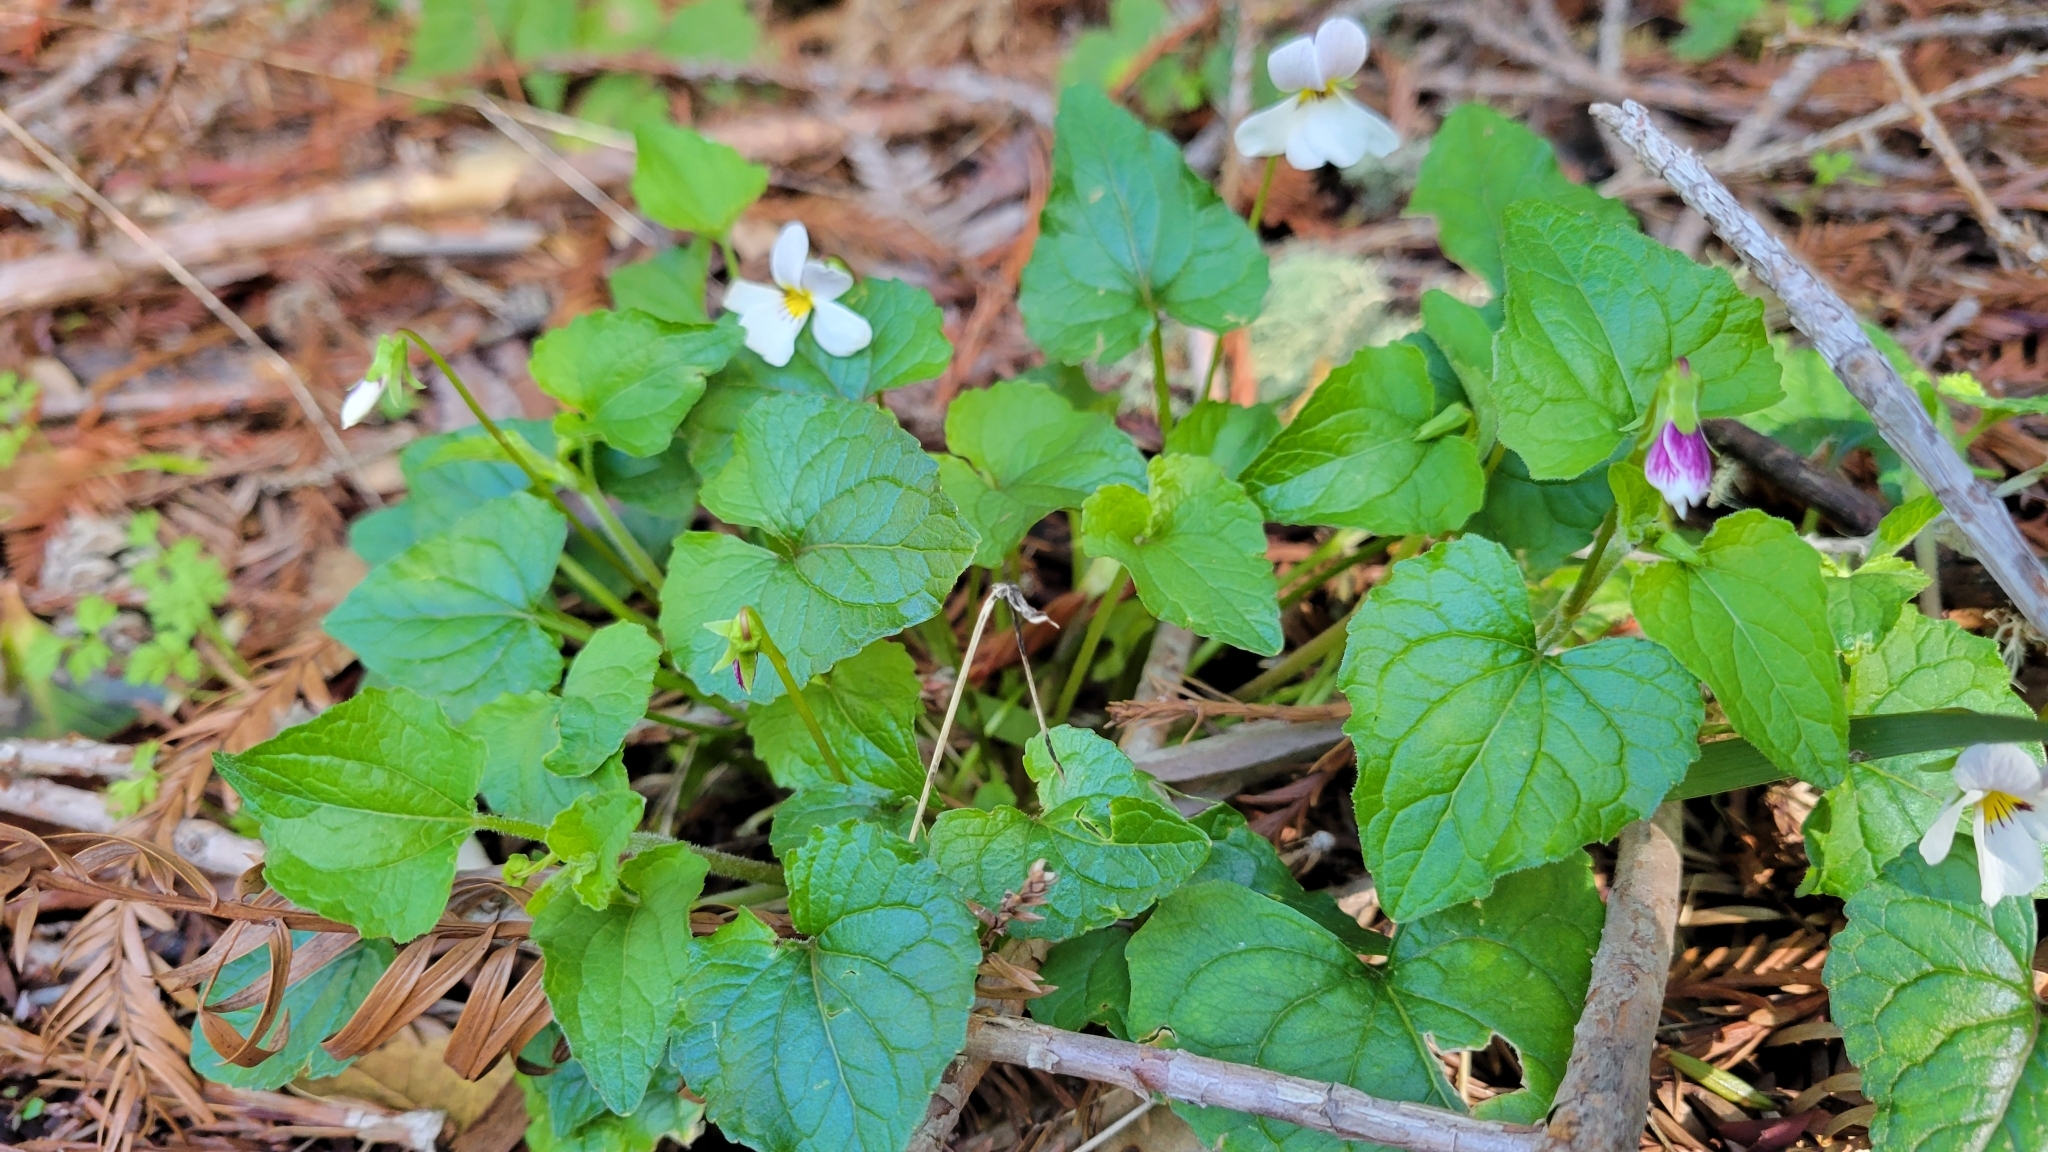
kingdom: Plantae
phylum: Tracheophyta
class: Magnoliopsida
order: Malpighiales
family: Violaceae
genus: Viola
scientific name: Viola ocellata
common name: Western heart's ease
